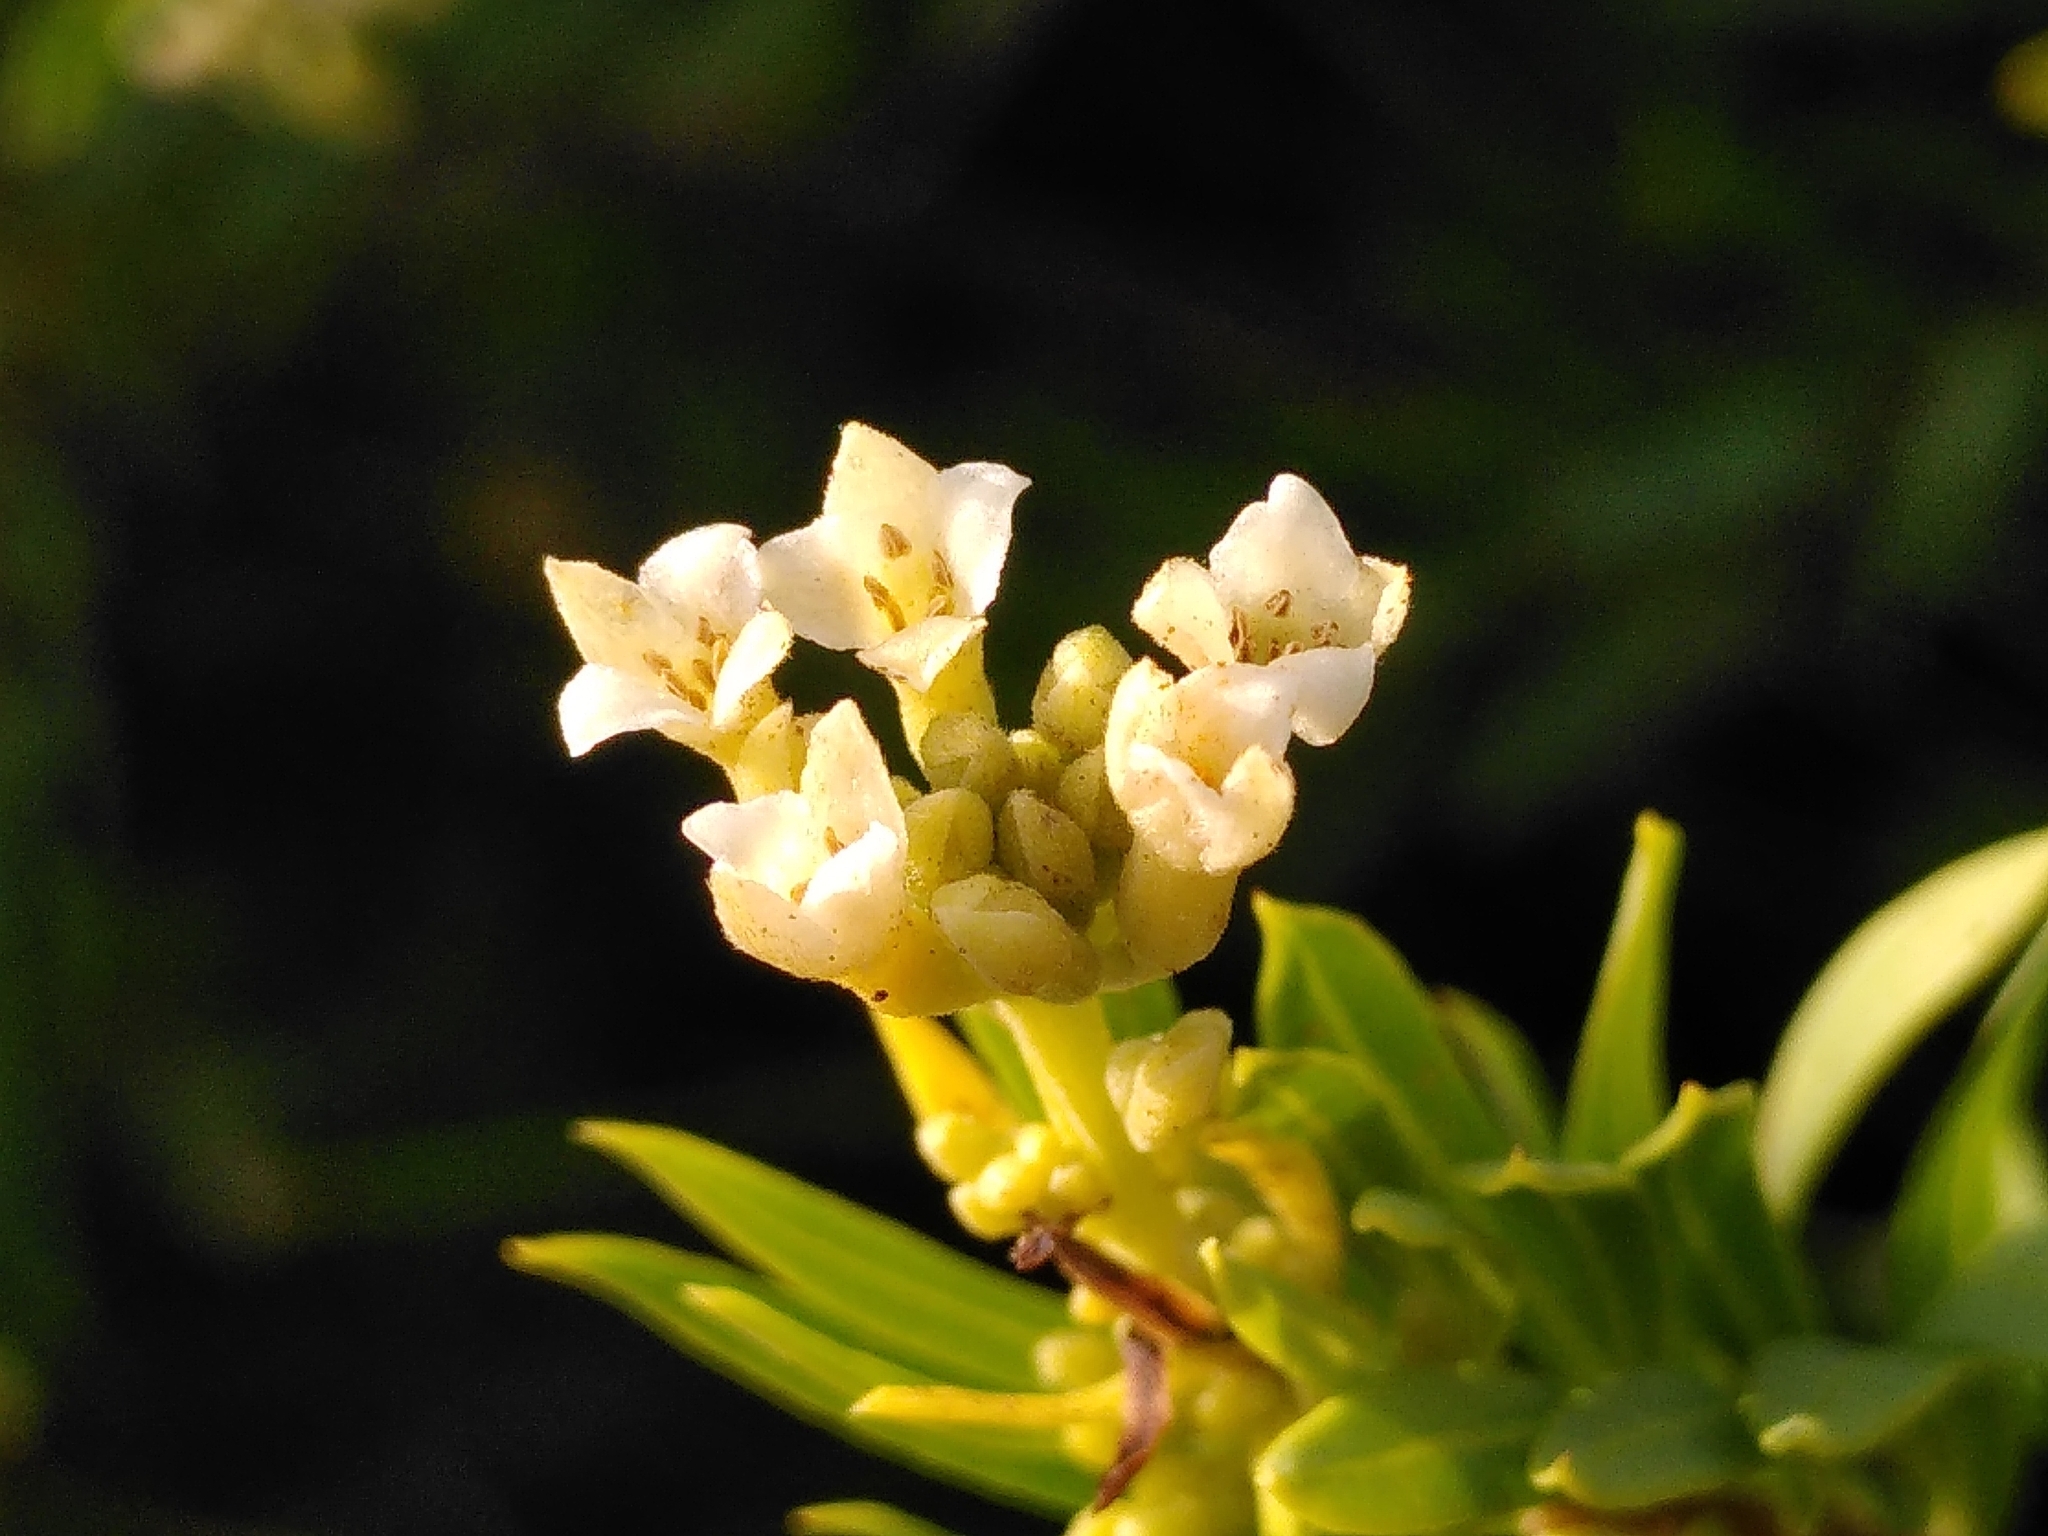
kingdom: Plantae
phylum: Tracheophyta
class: Magnoliopsida
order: Malvales
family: Thymelaeaceae
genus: Daphne
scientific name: Daphne gnidium
